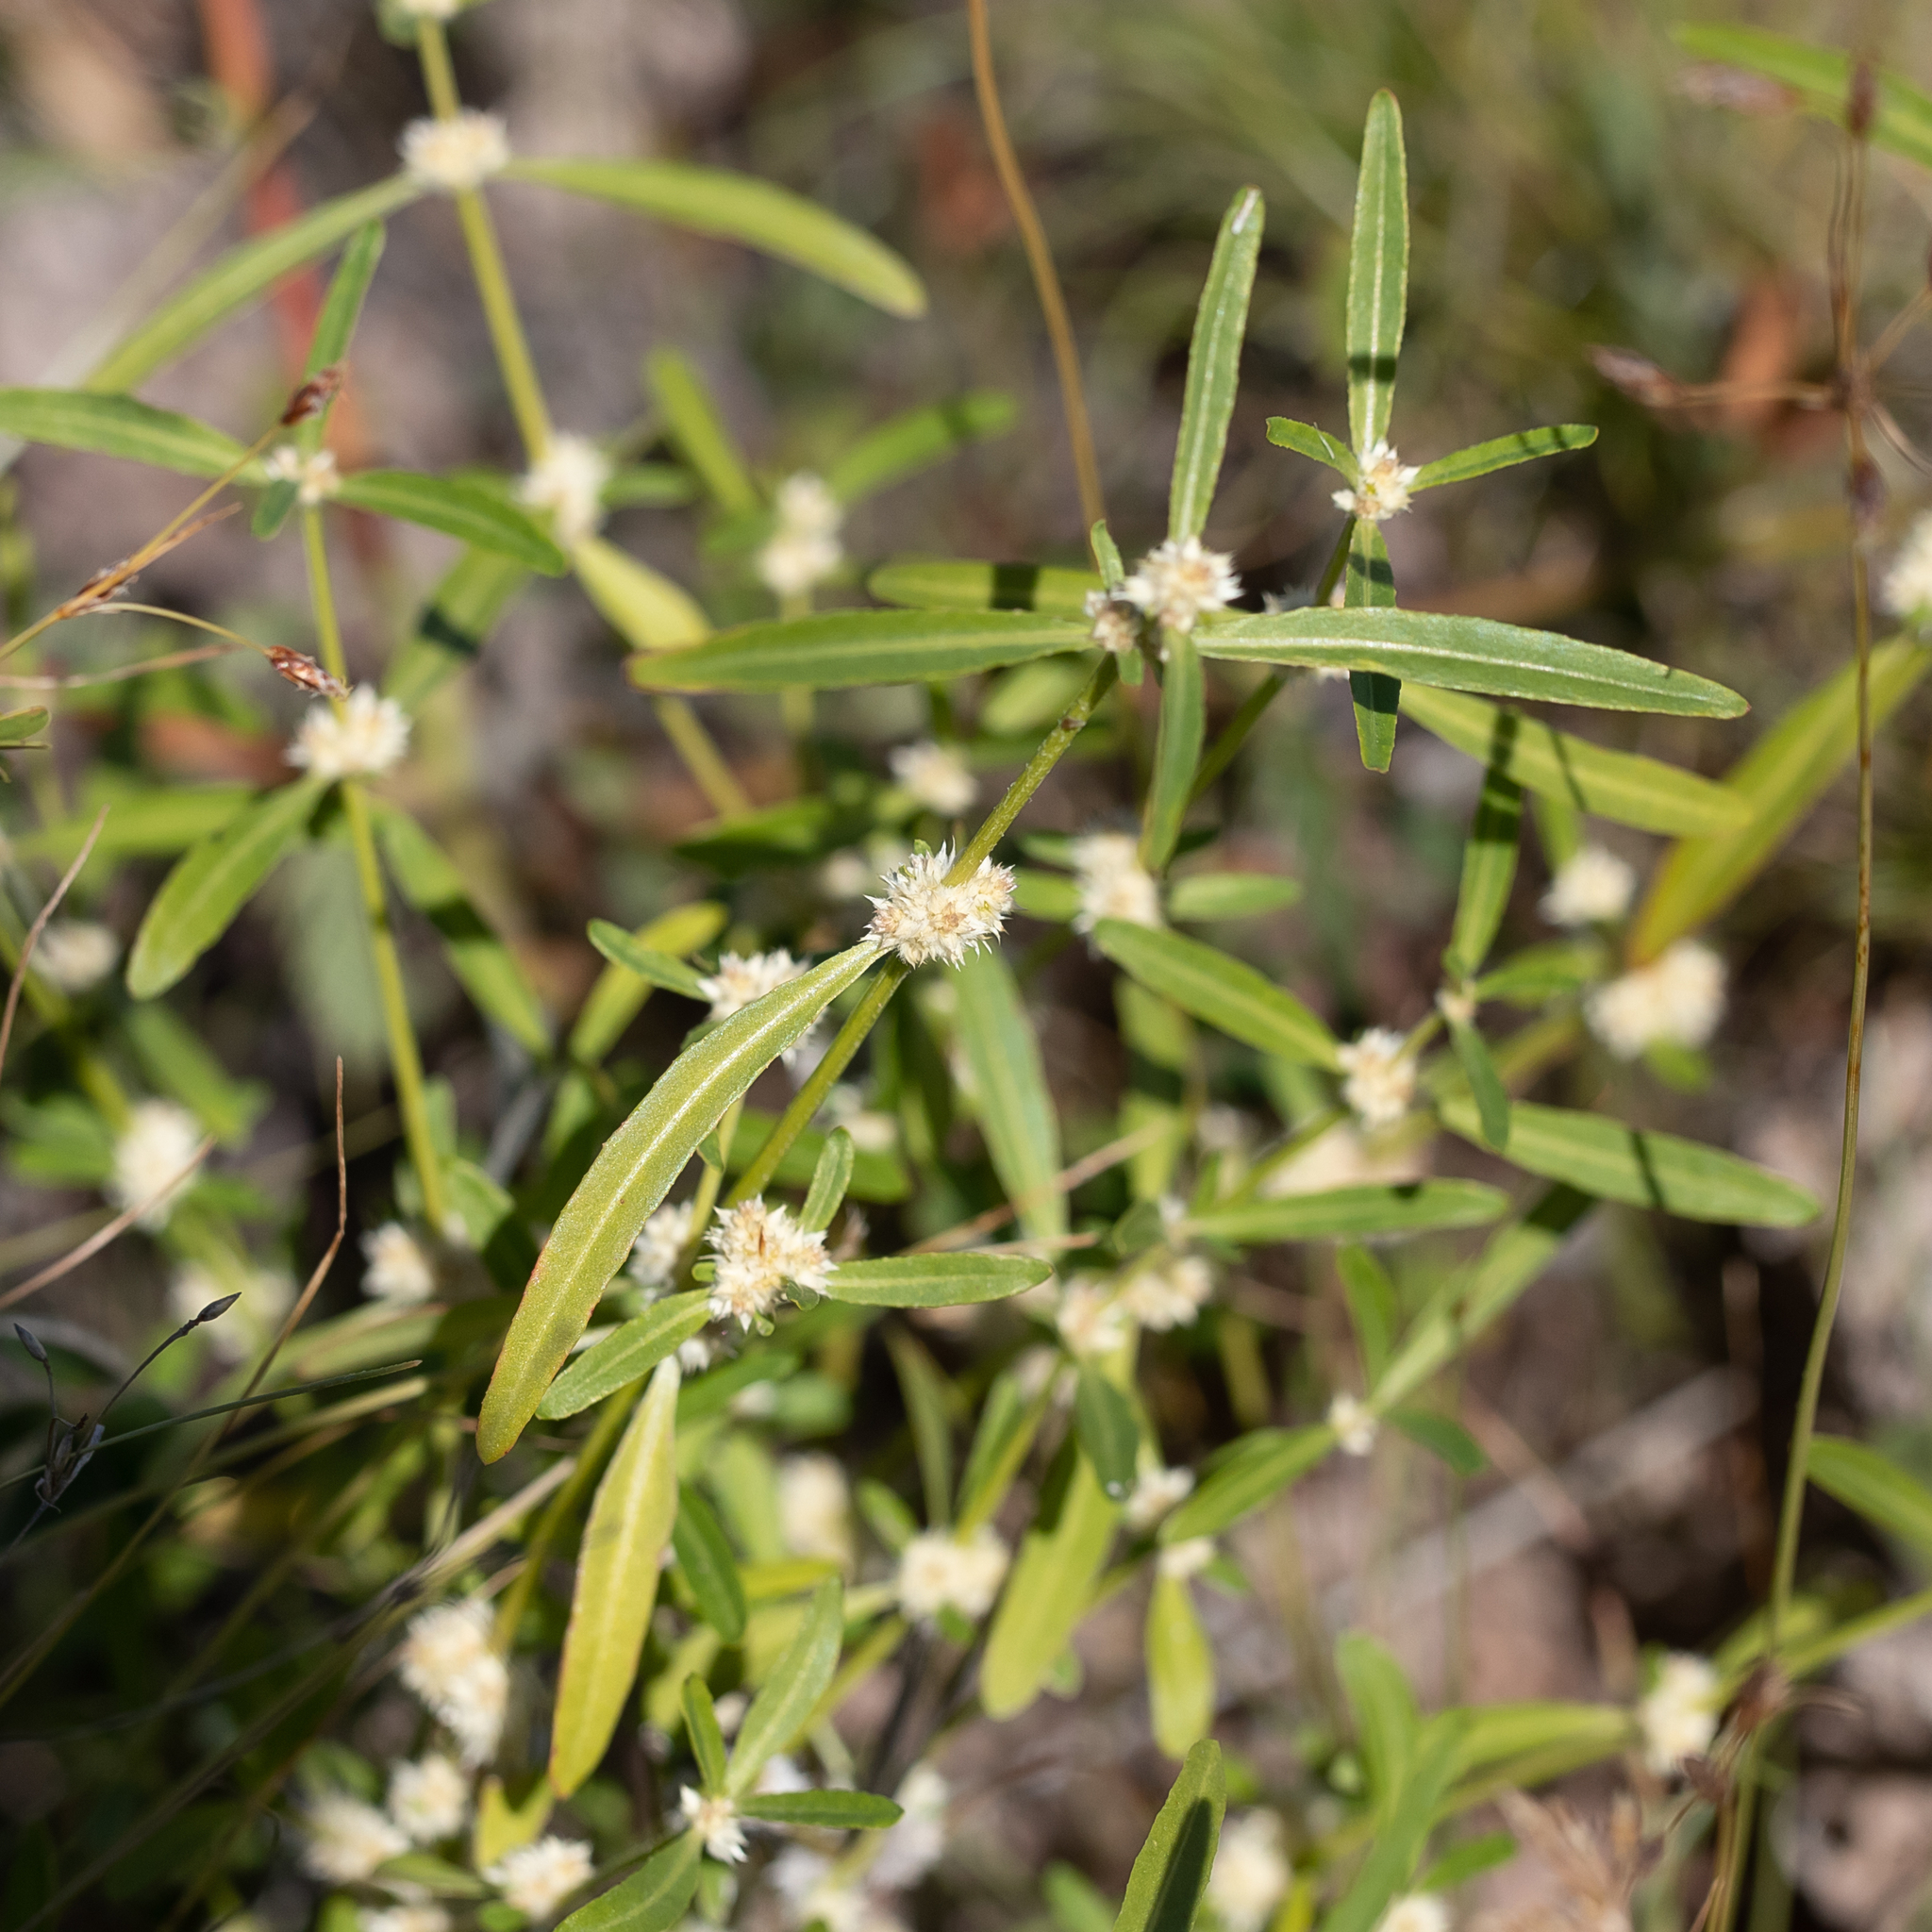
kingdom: Plantae
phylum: Tracheophyta
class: Magnoliopsida
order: Caryophyllales
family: Amaranthaceae
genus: Alternanthera
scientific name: Alternanthera angustifolia
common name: Narrow-leaf joyweed
